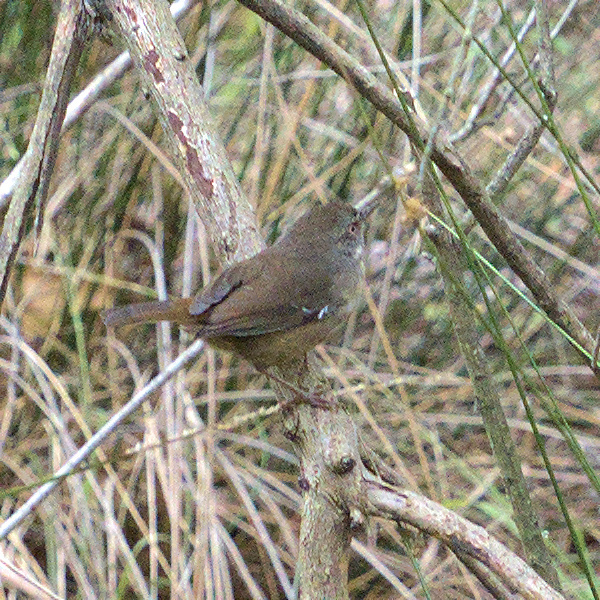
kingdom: Animalia
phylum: Chordata
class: Aves
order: Passeriformes
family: Acanthizidae
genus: Sericornis
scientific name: Sericornis frontalis
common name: White-browed scrubwren
